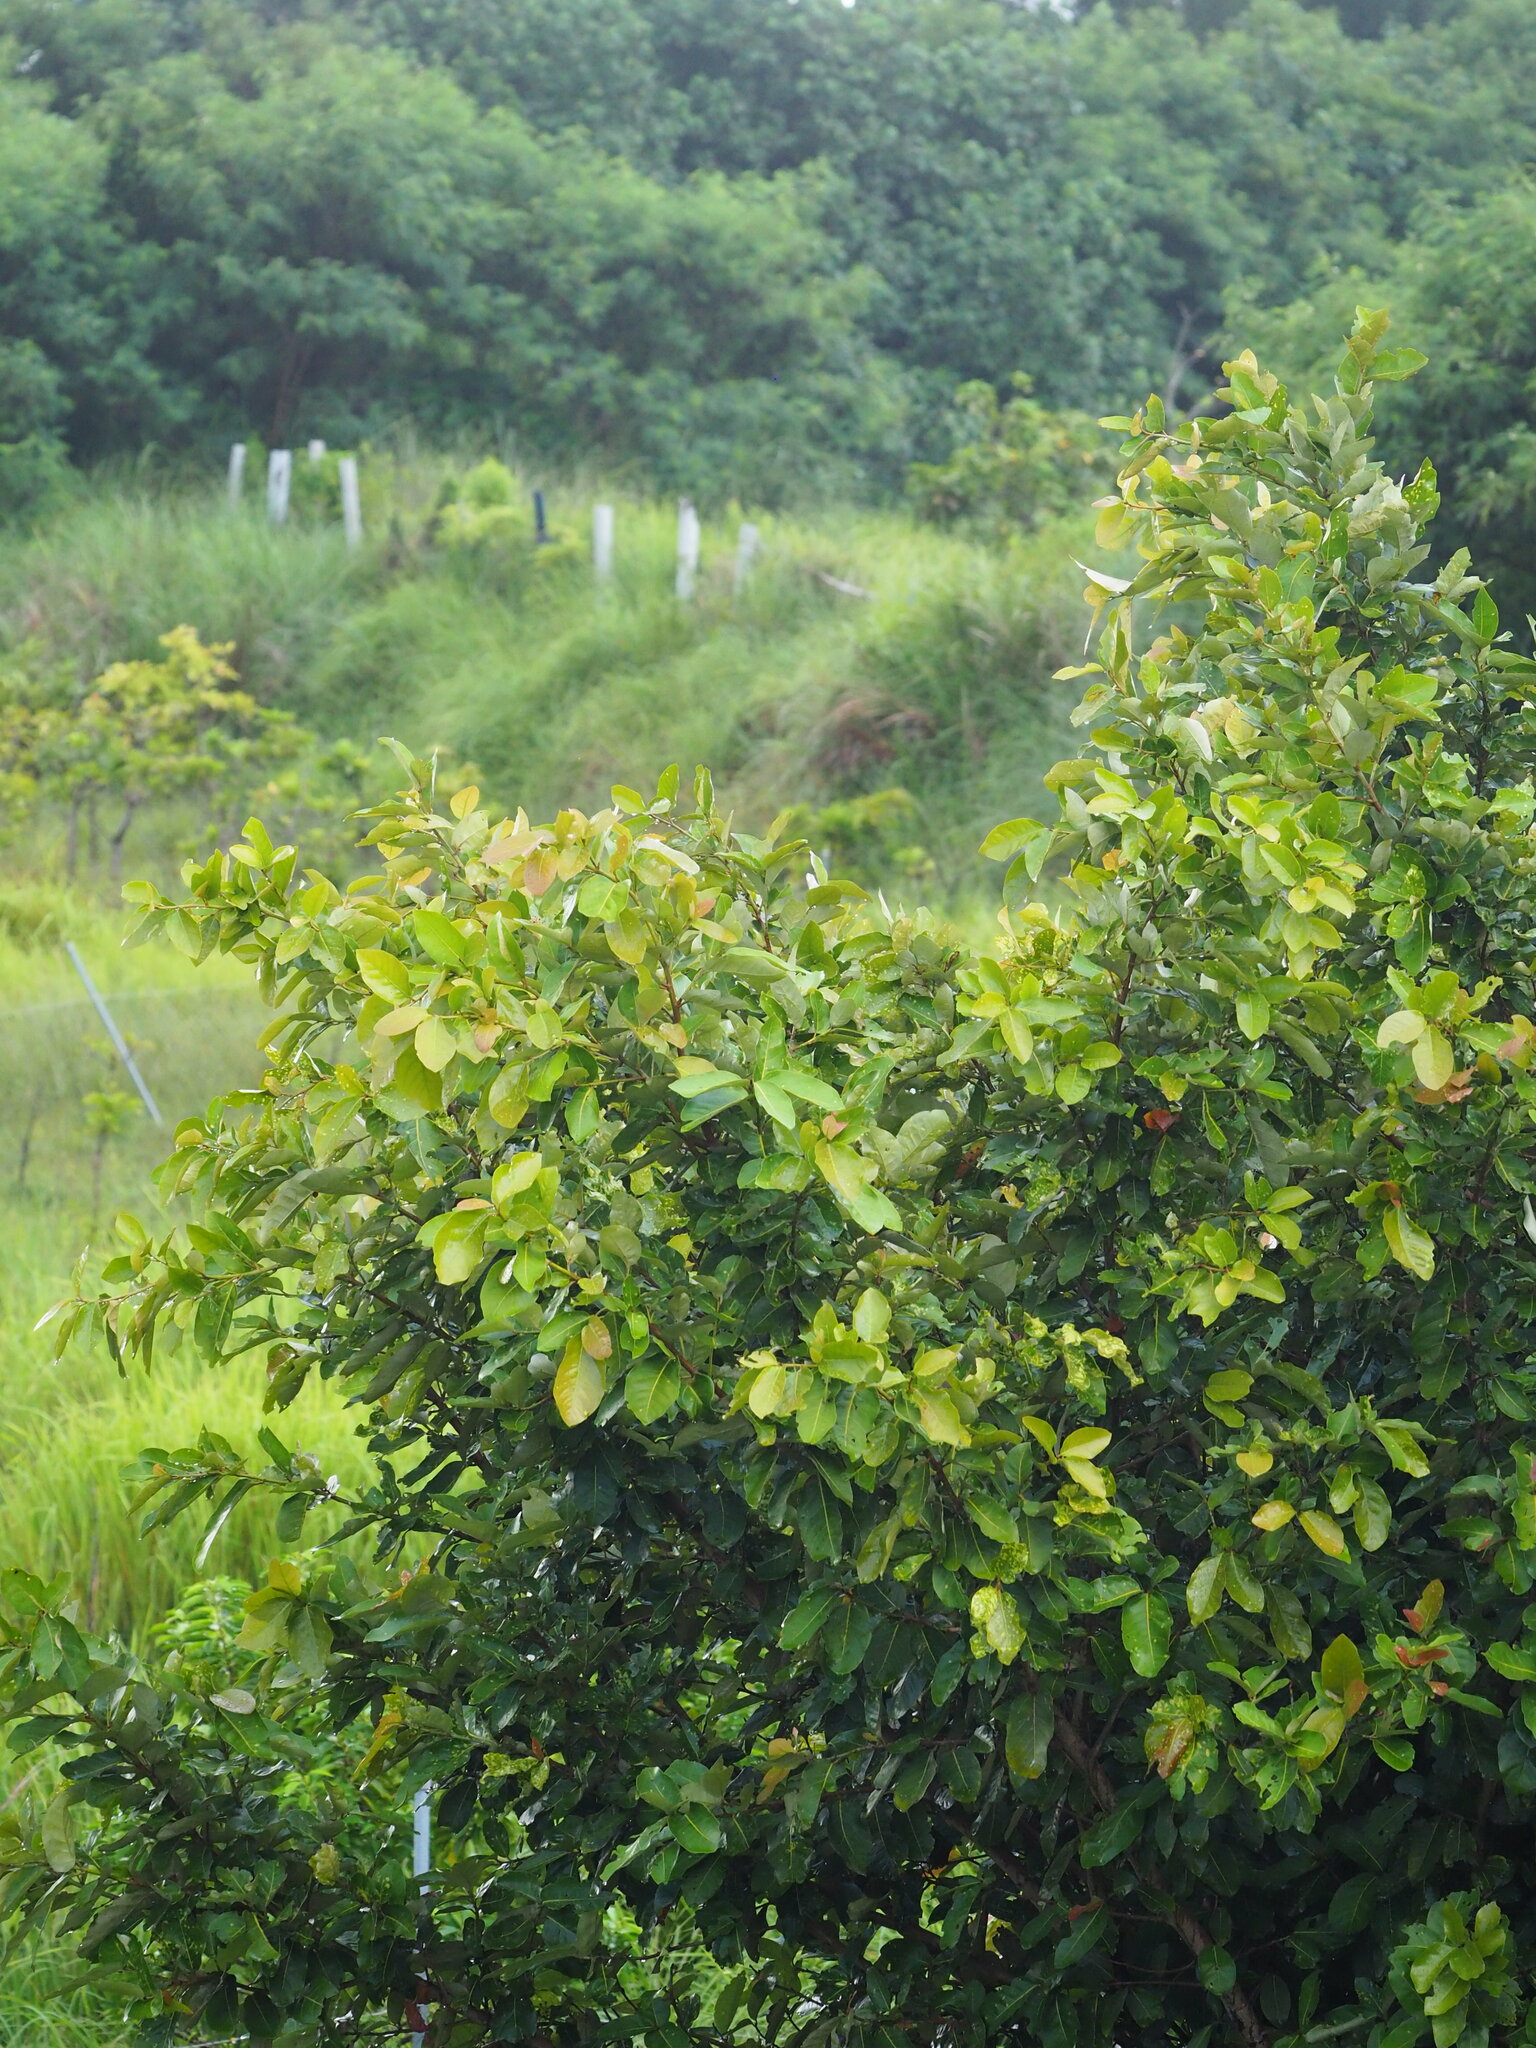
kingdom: Plantae
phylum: Tracheophyta
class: Magnoliopsida
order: Boraginales
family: Ehretiaceae
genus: Ehretia
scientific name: Ehretia acuminata
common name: Kodo wood
